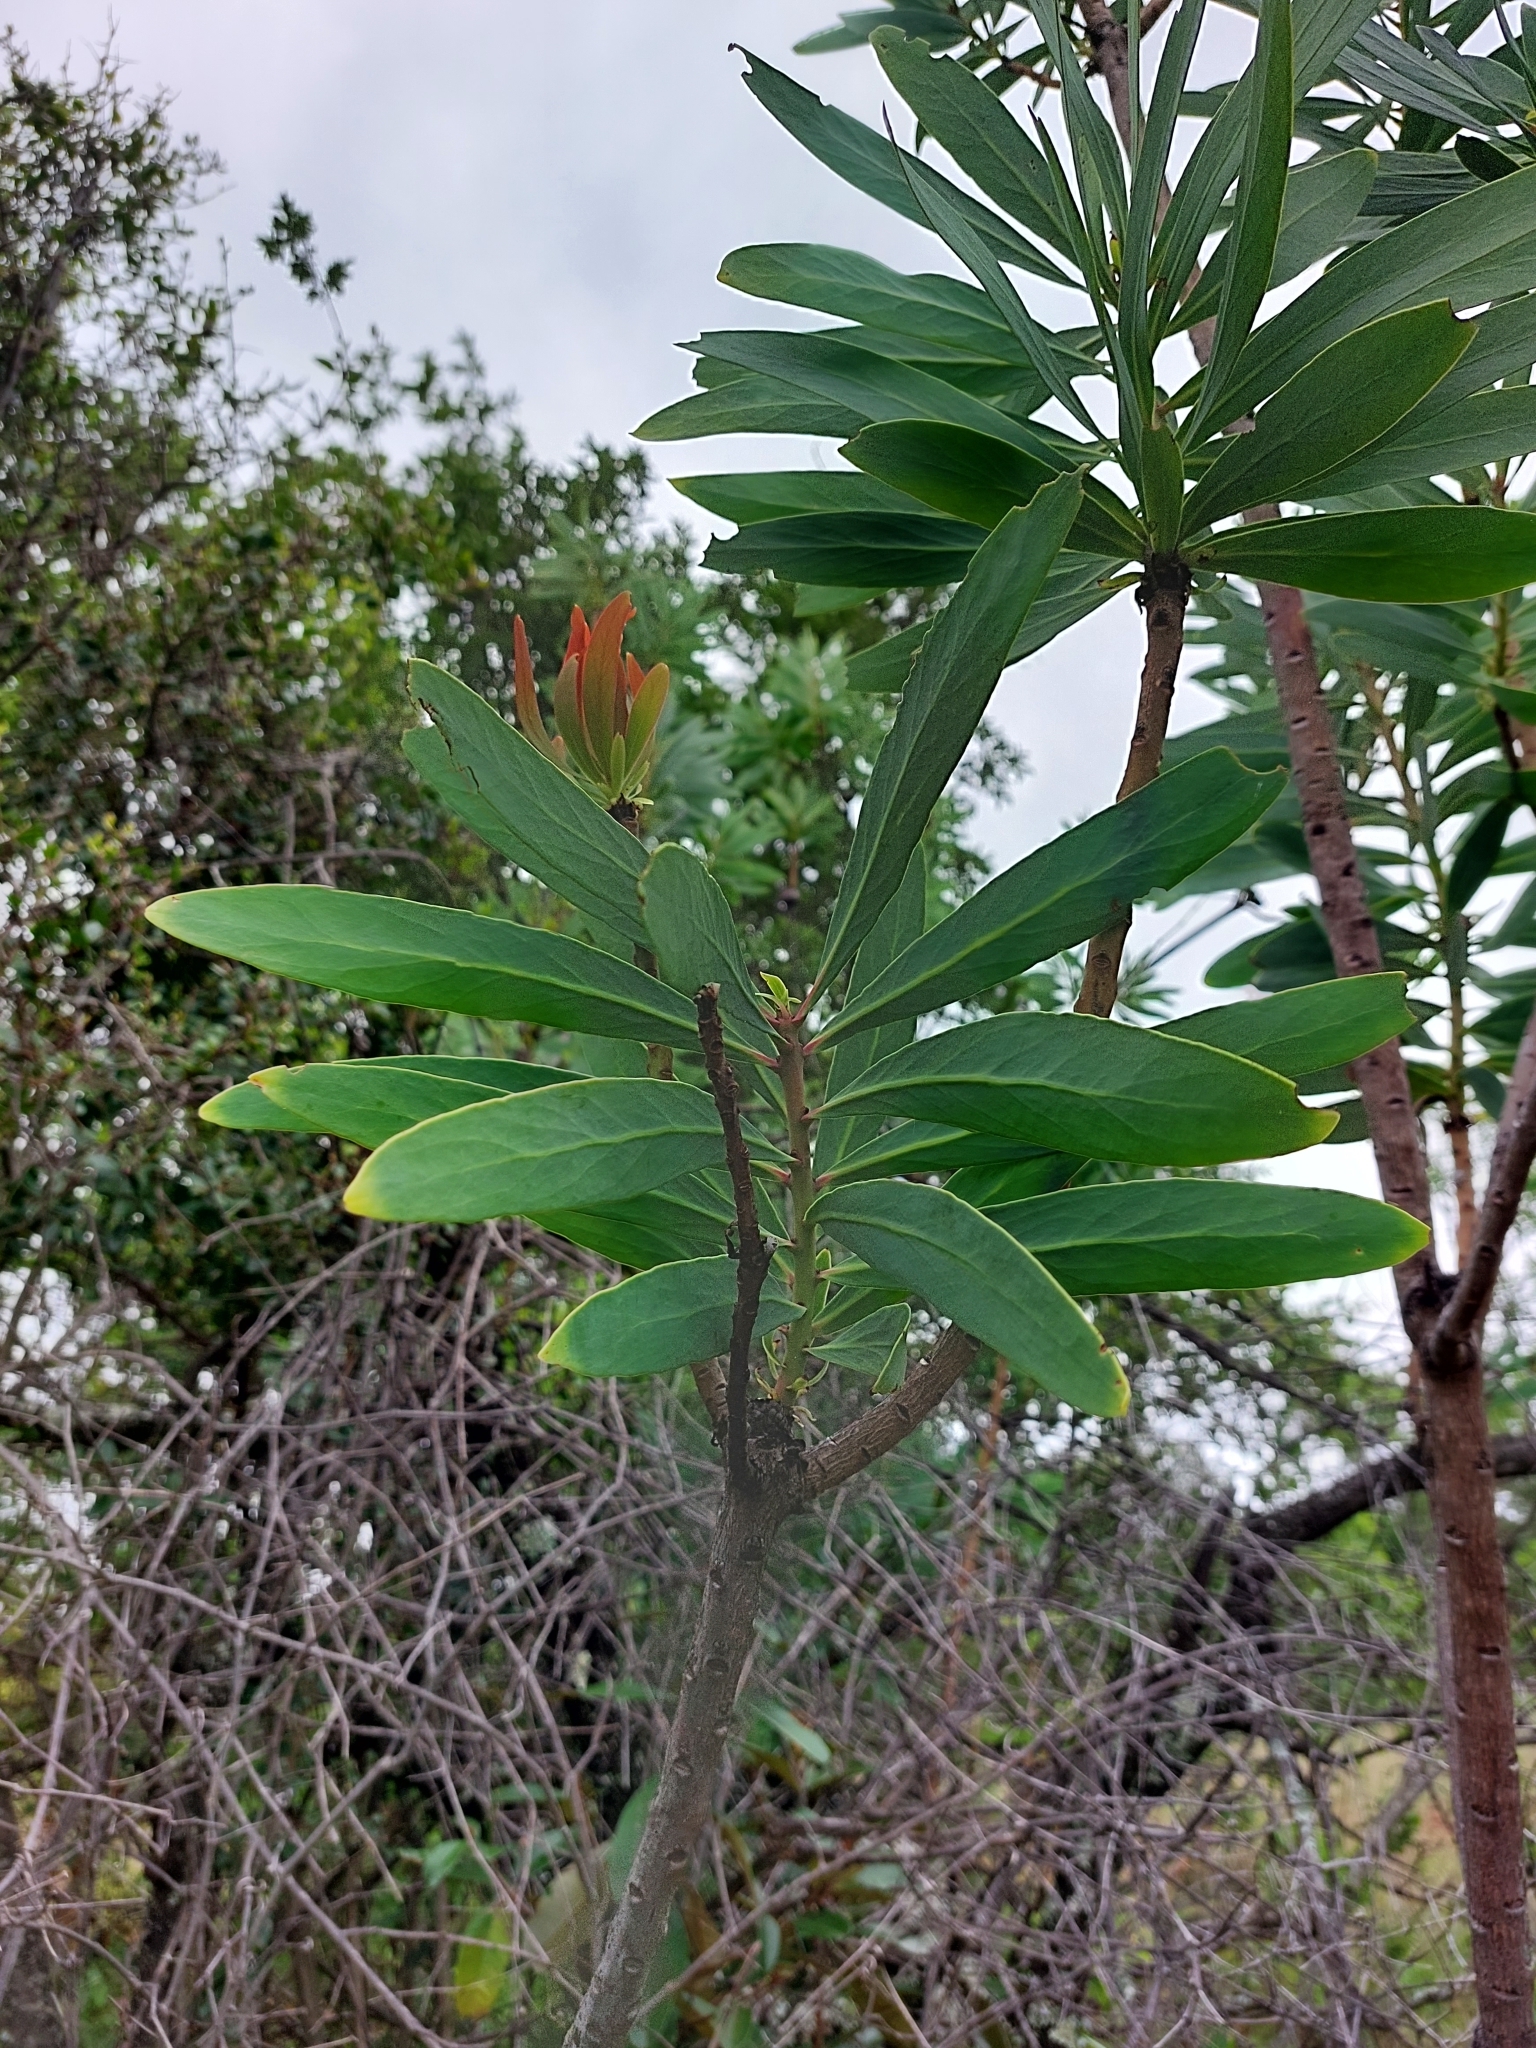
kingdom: Plantae
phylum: Tracheophyta
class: Magnoliopsida
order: Proteales
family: Proteaceae
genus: Protea
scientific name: Protea caffra
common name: Common sugarbush
